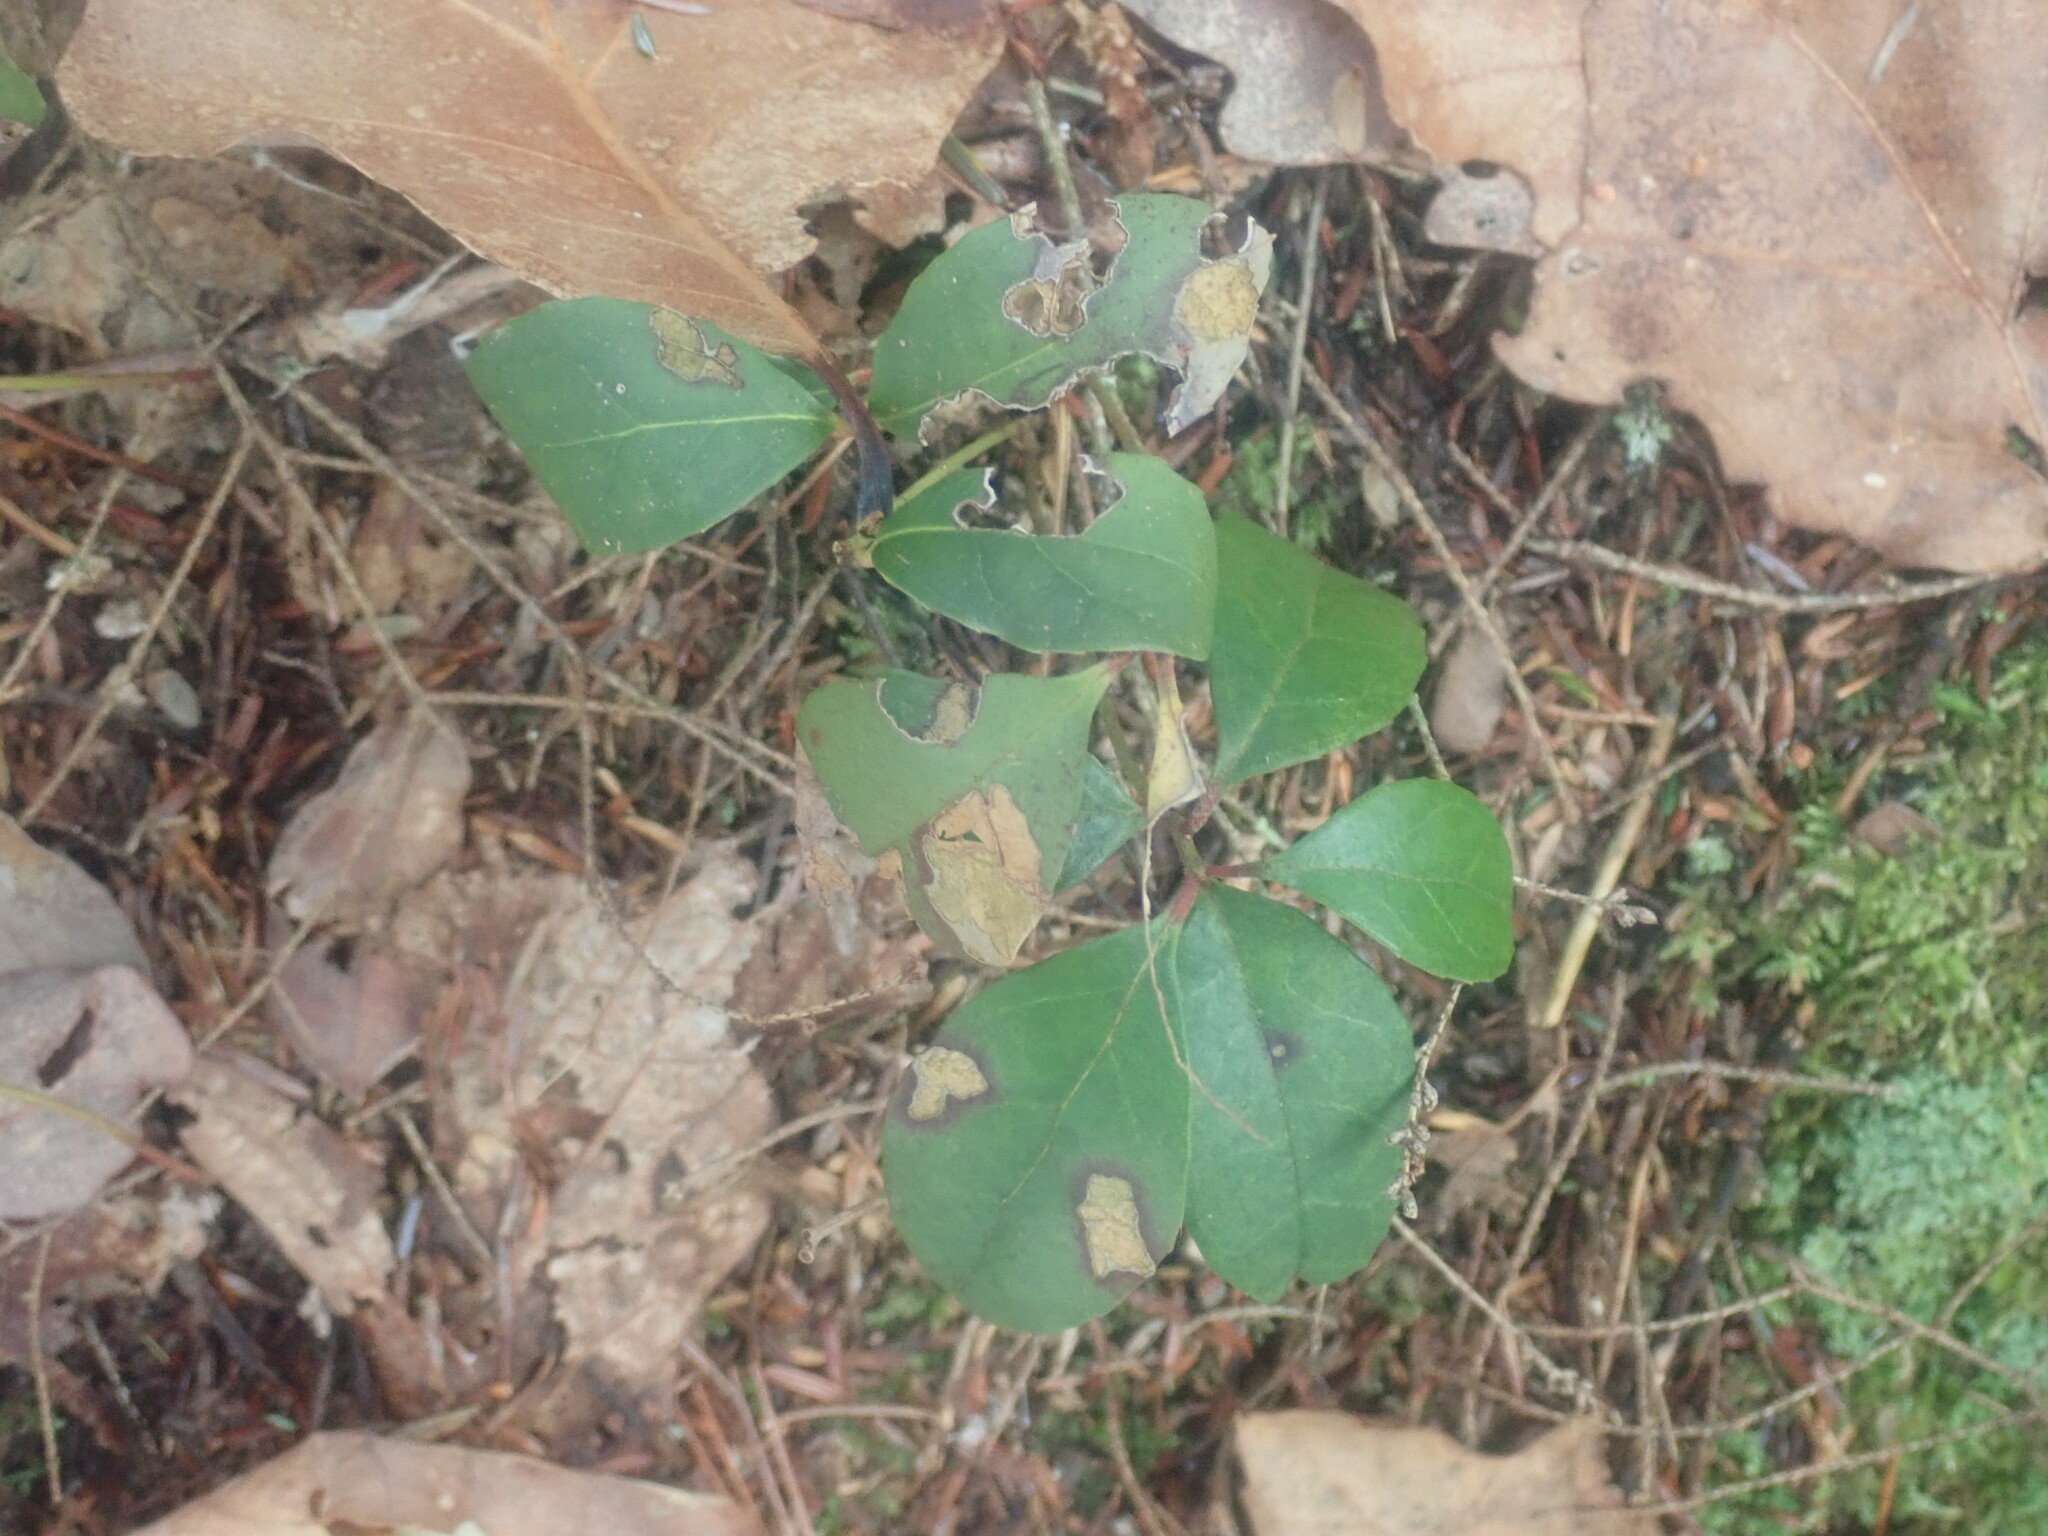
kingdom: Plantae
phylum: Tracheophyta
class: Magnoliopsida
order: Ericales
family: Ericaceae
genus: Gaultheria
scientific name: Gaultheria procumbens
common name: Checkerberry
